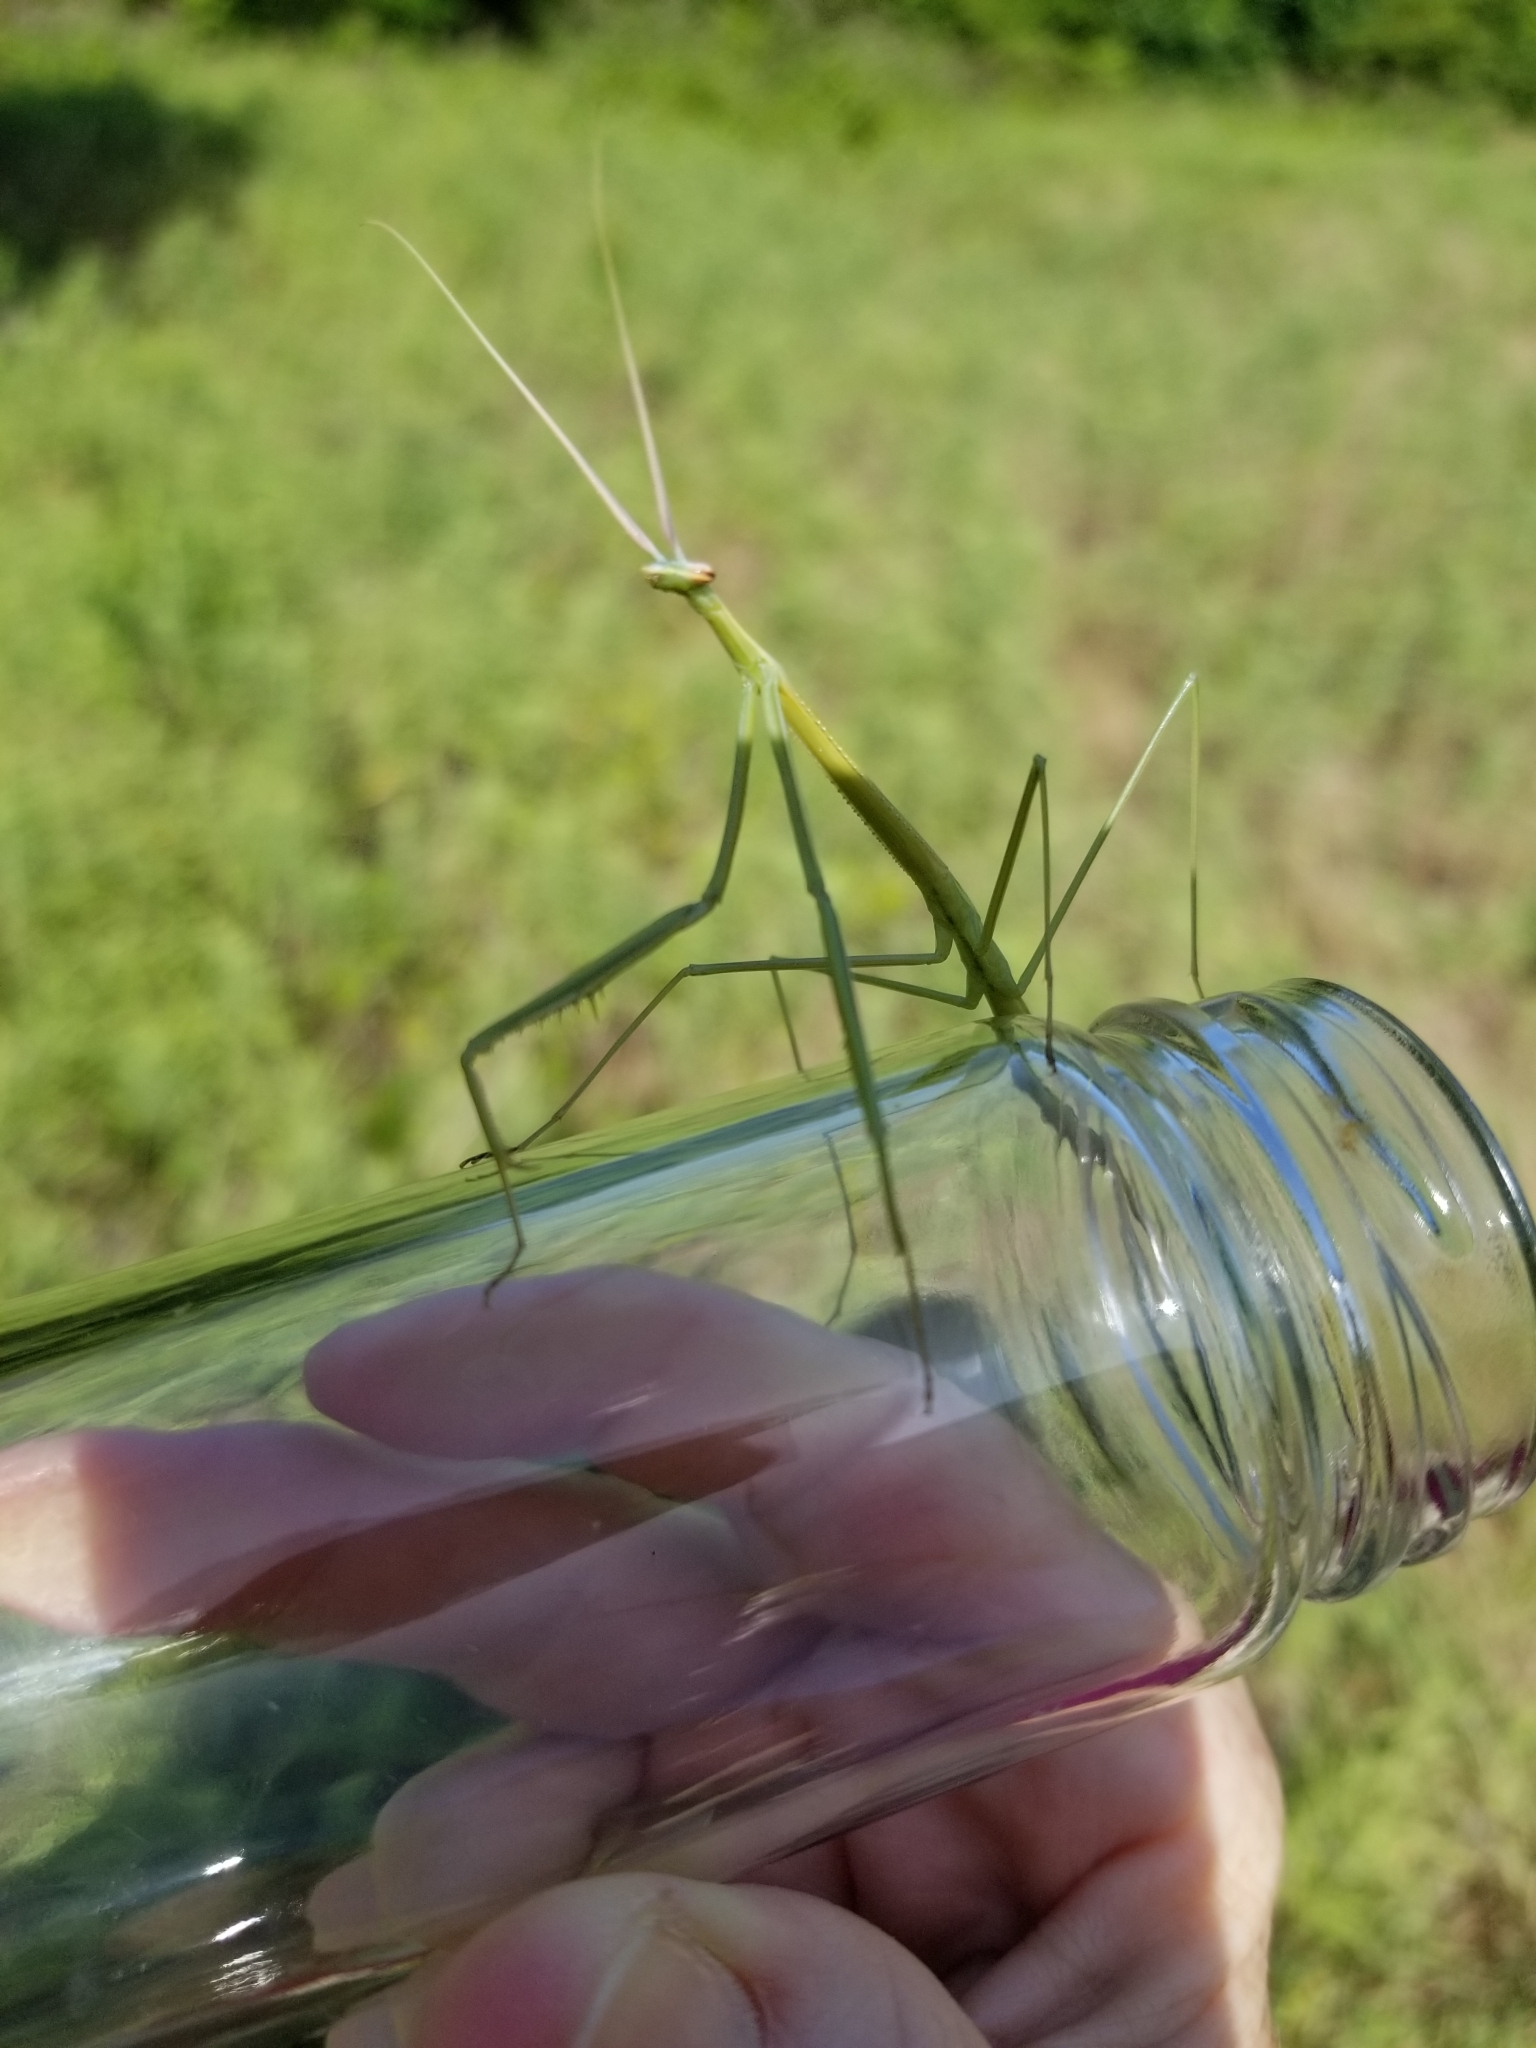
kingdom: Animalia
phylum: Arthropoda
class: Insecta
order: Mantodea
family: Coptopterygidae
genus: Brunneria
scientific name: Brunneria borealis
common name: Mantis
